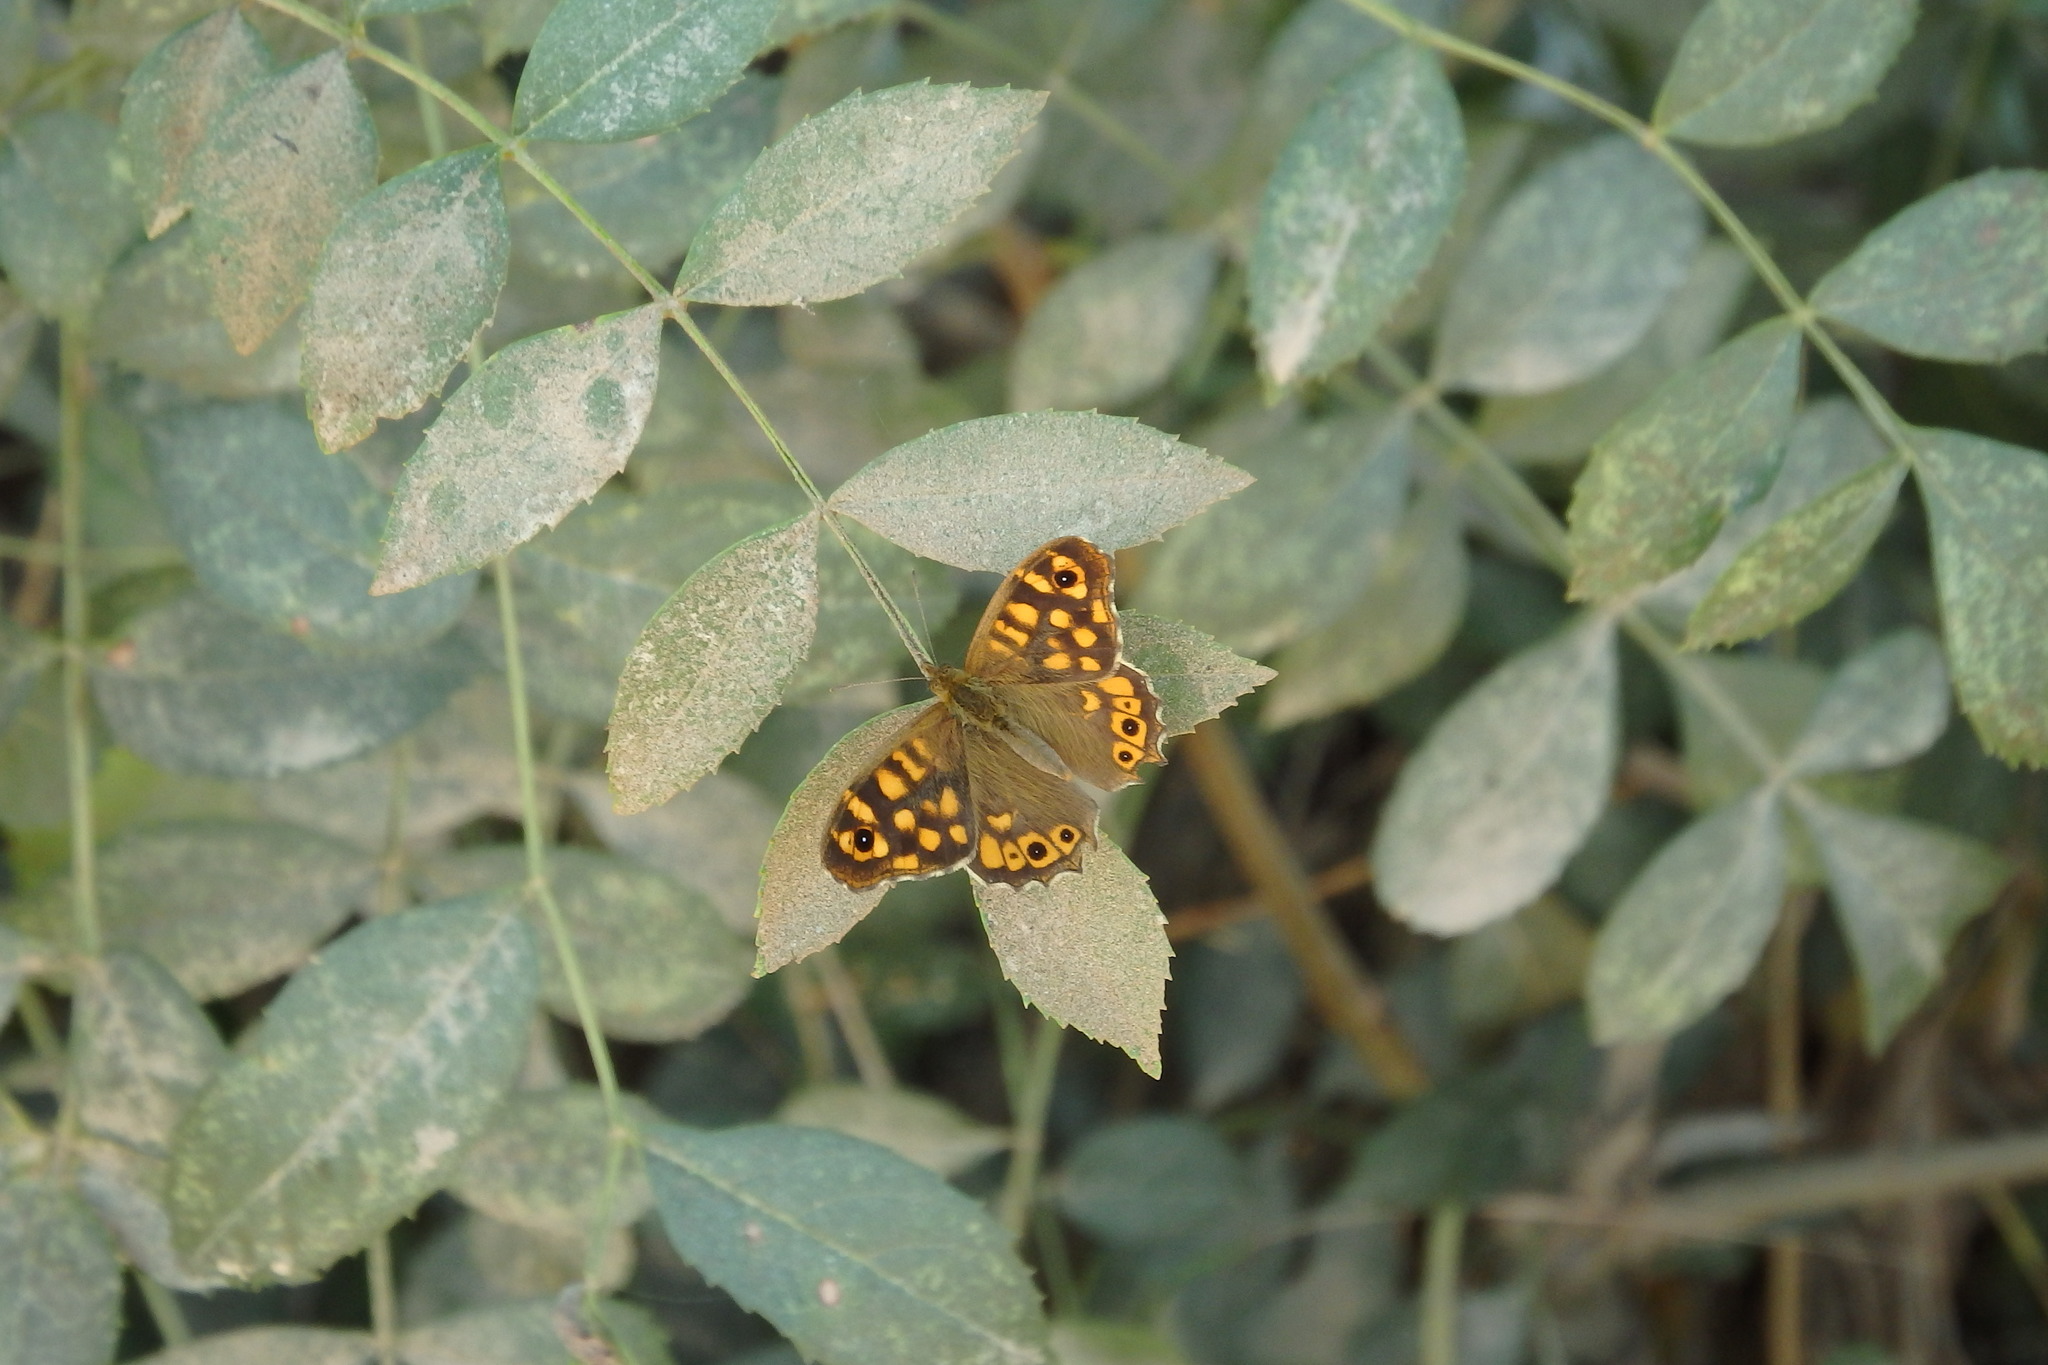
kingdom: Animalia
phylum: Arthropoda
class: Insecta
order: Lepidoptera
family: Nymphalidae
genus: Pararge
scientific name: Pararge aegeria
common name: Speckled wood
